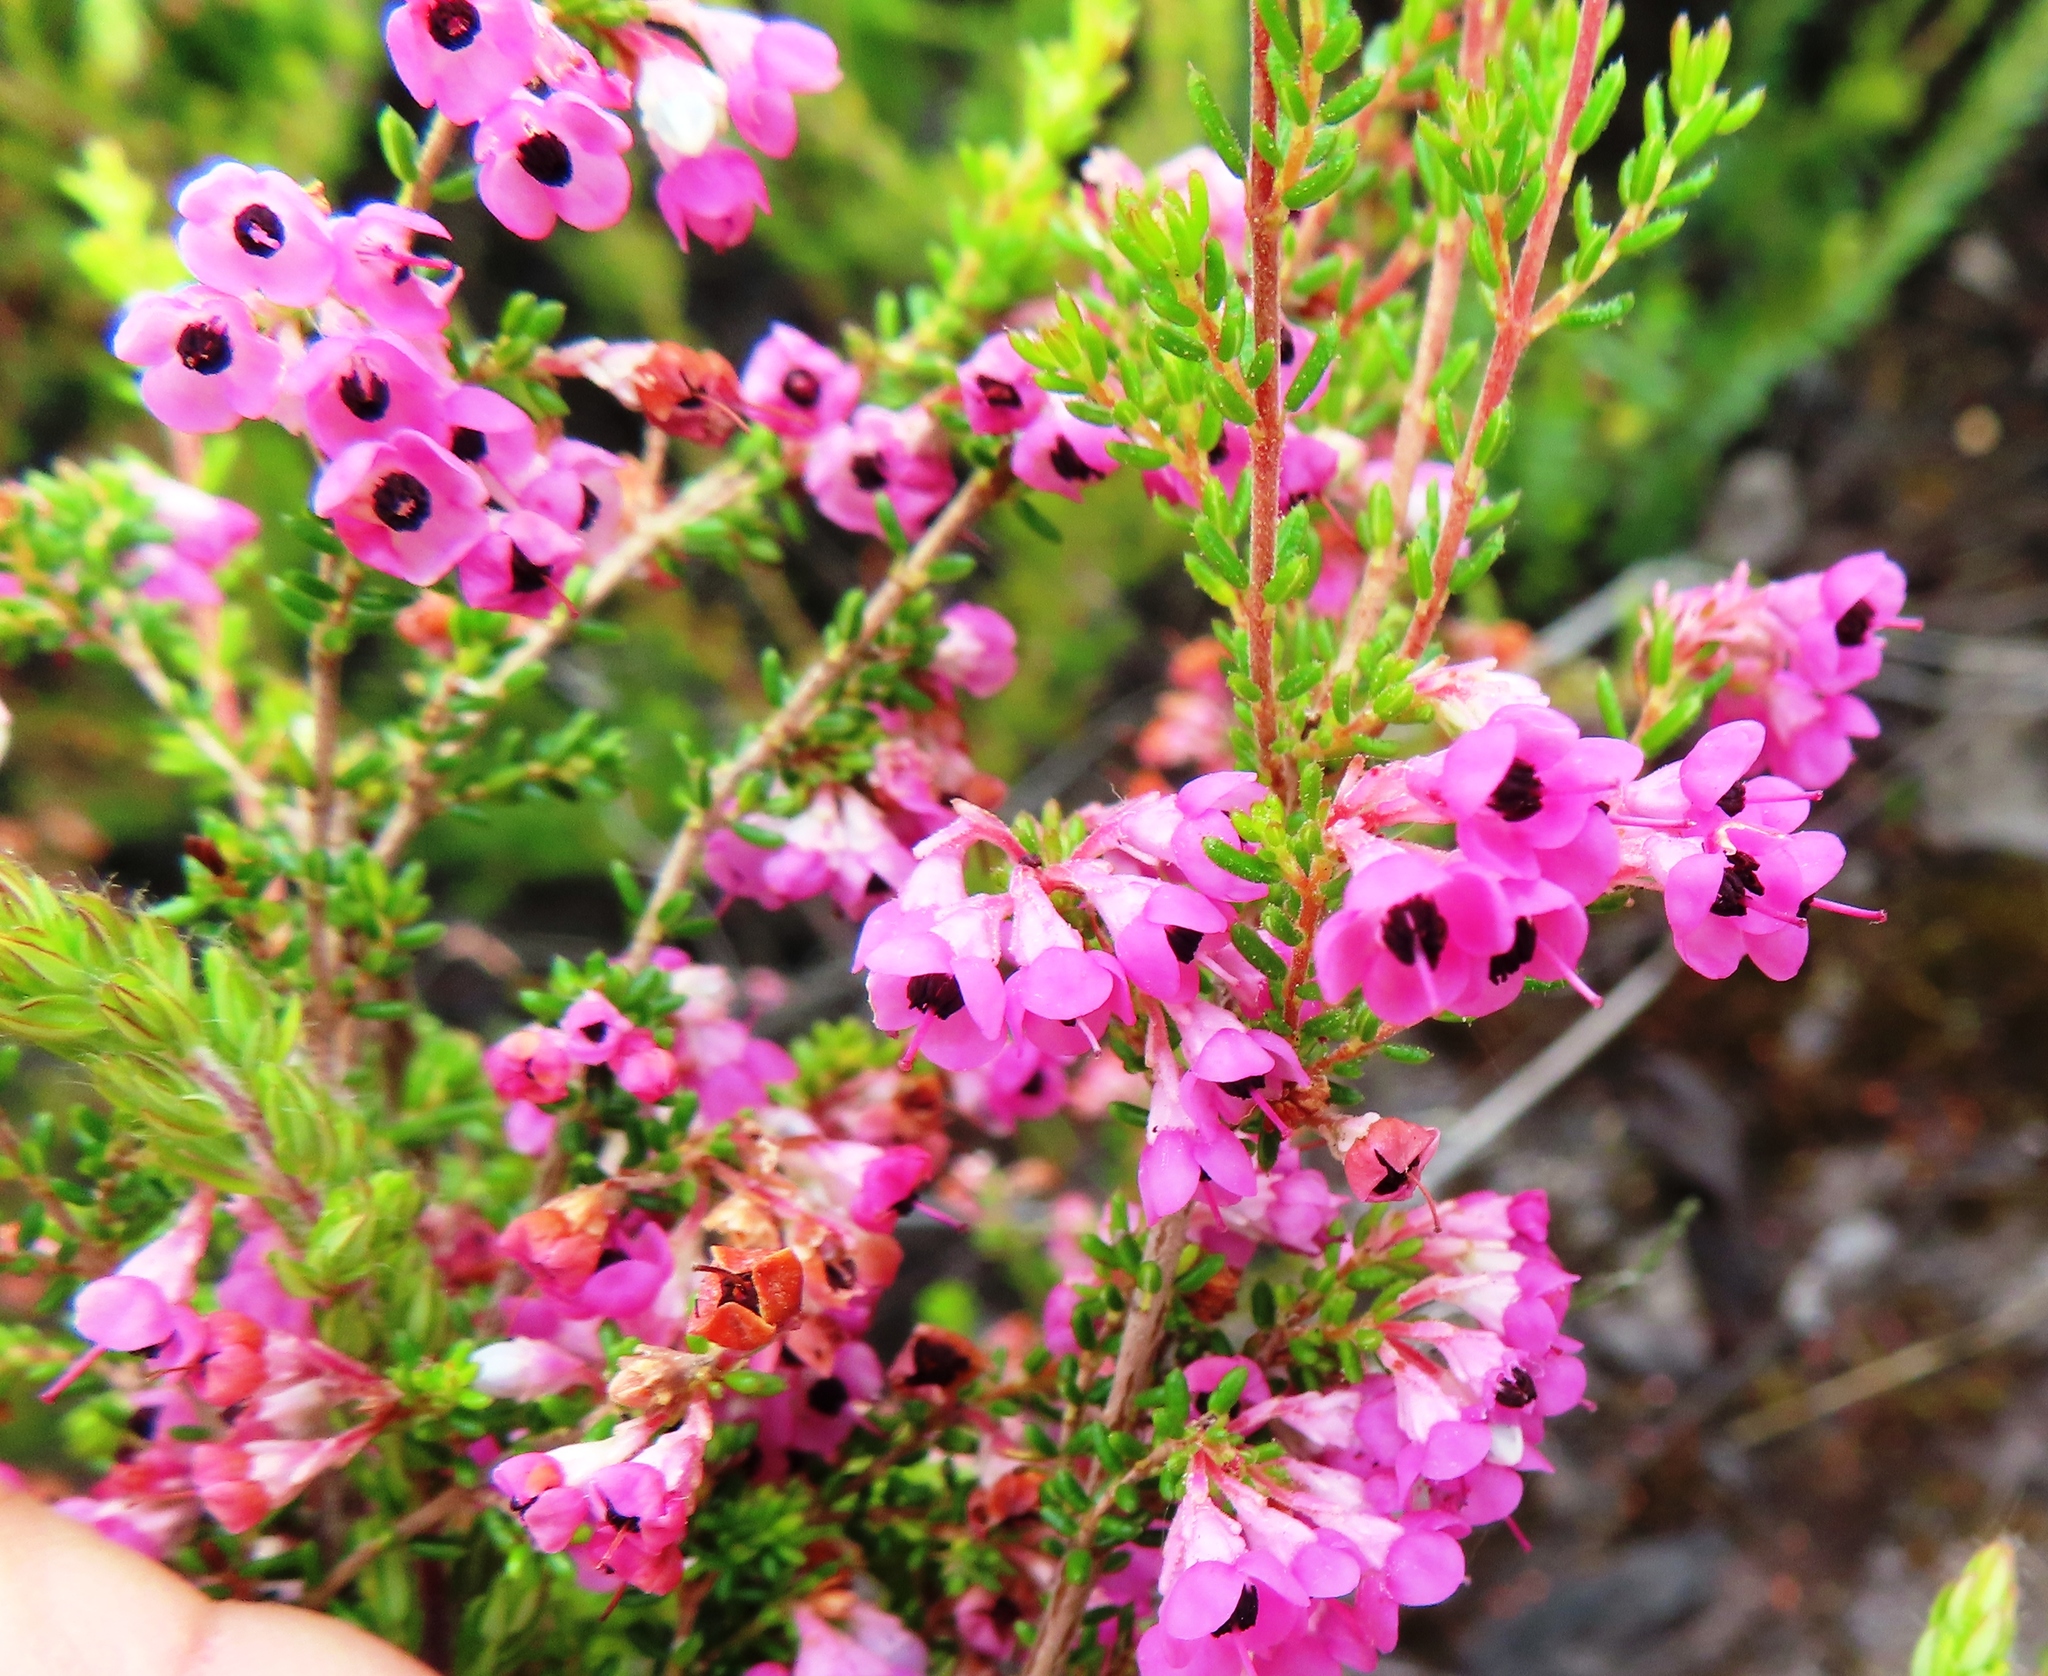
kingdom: Plantae
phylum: Tracheophyta
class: Magnoliopsida
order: Ericales
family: Ericaceae
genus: Erica
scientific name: Erica melanthera
